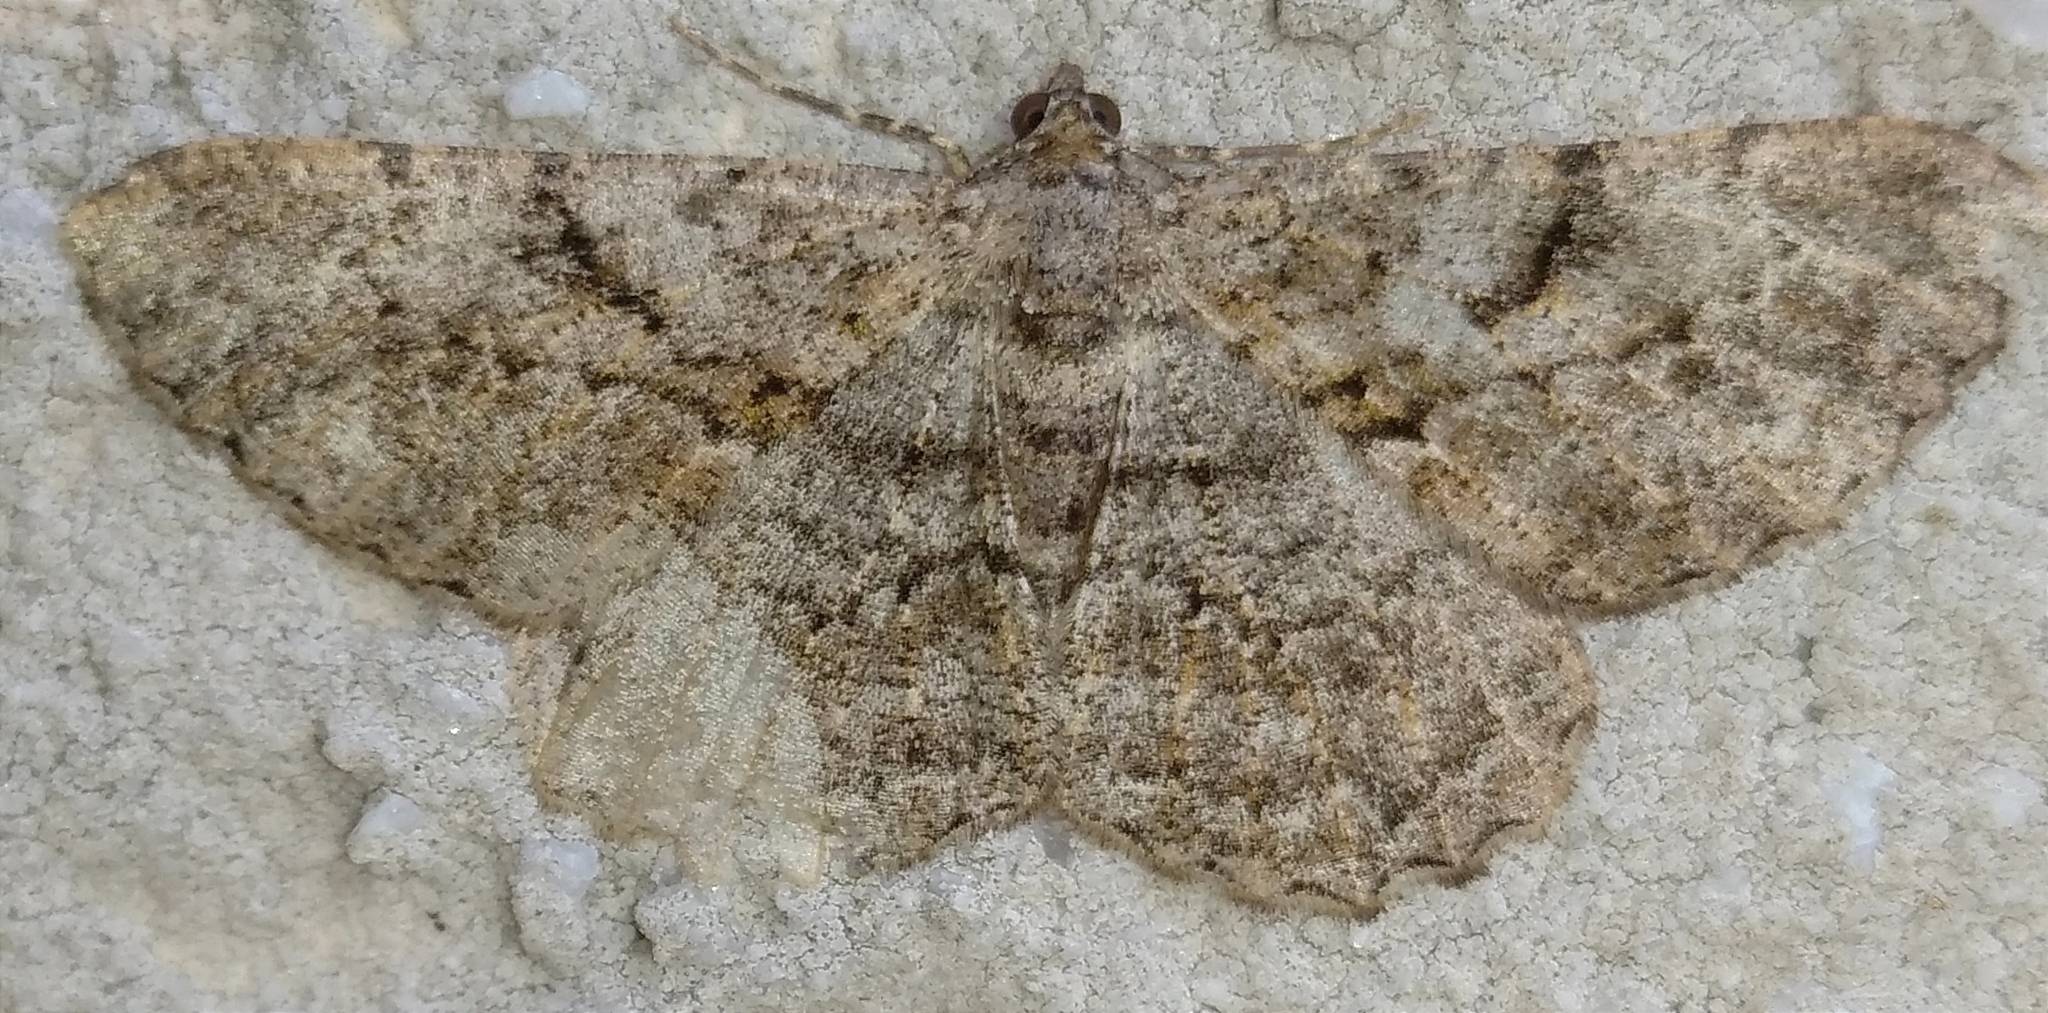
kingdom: Animalia
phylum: Arthropoda
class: Insecta
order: Lepidoptera
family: Geometridae
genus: Peribatodes
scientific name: Peribatodes rhomboidaria
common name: Willow beauty
